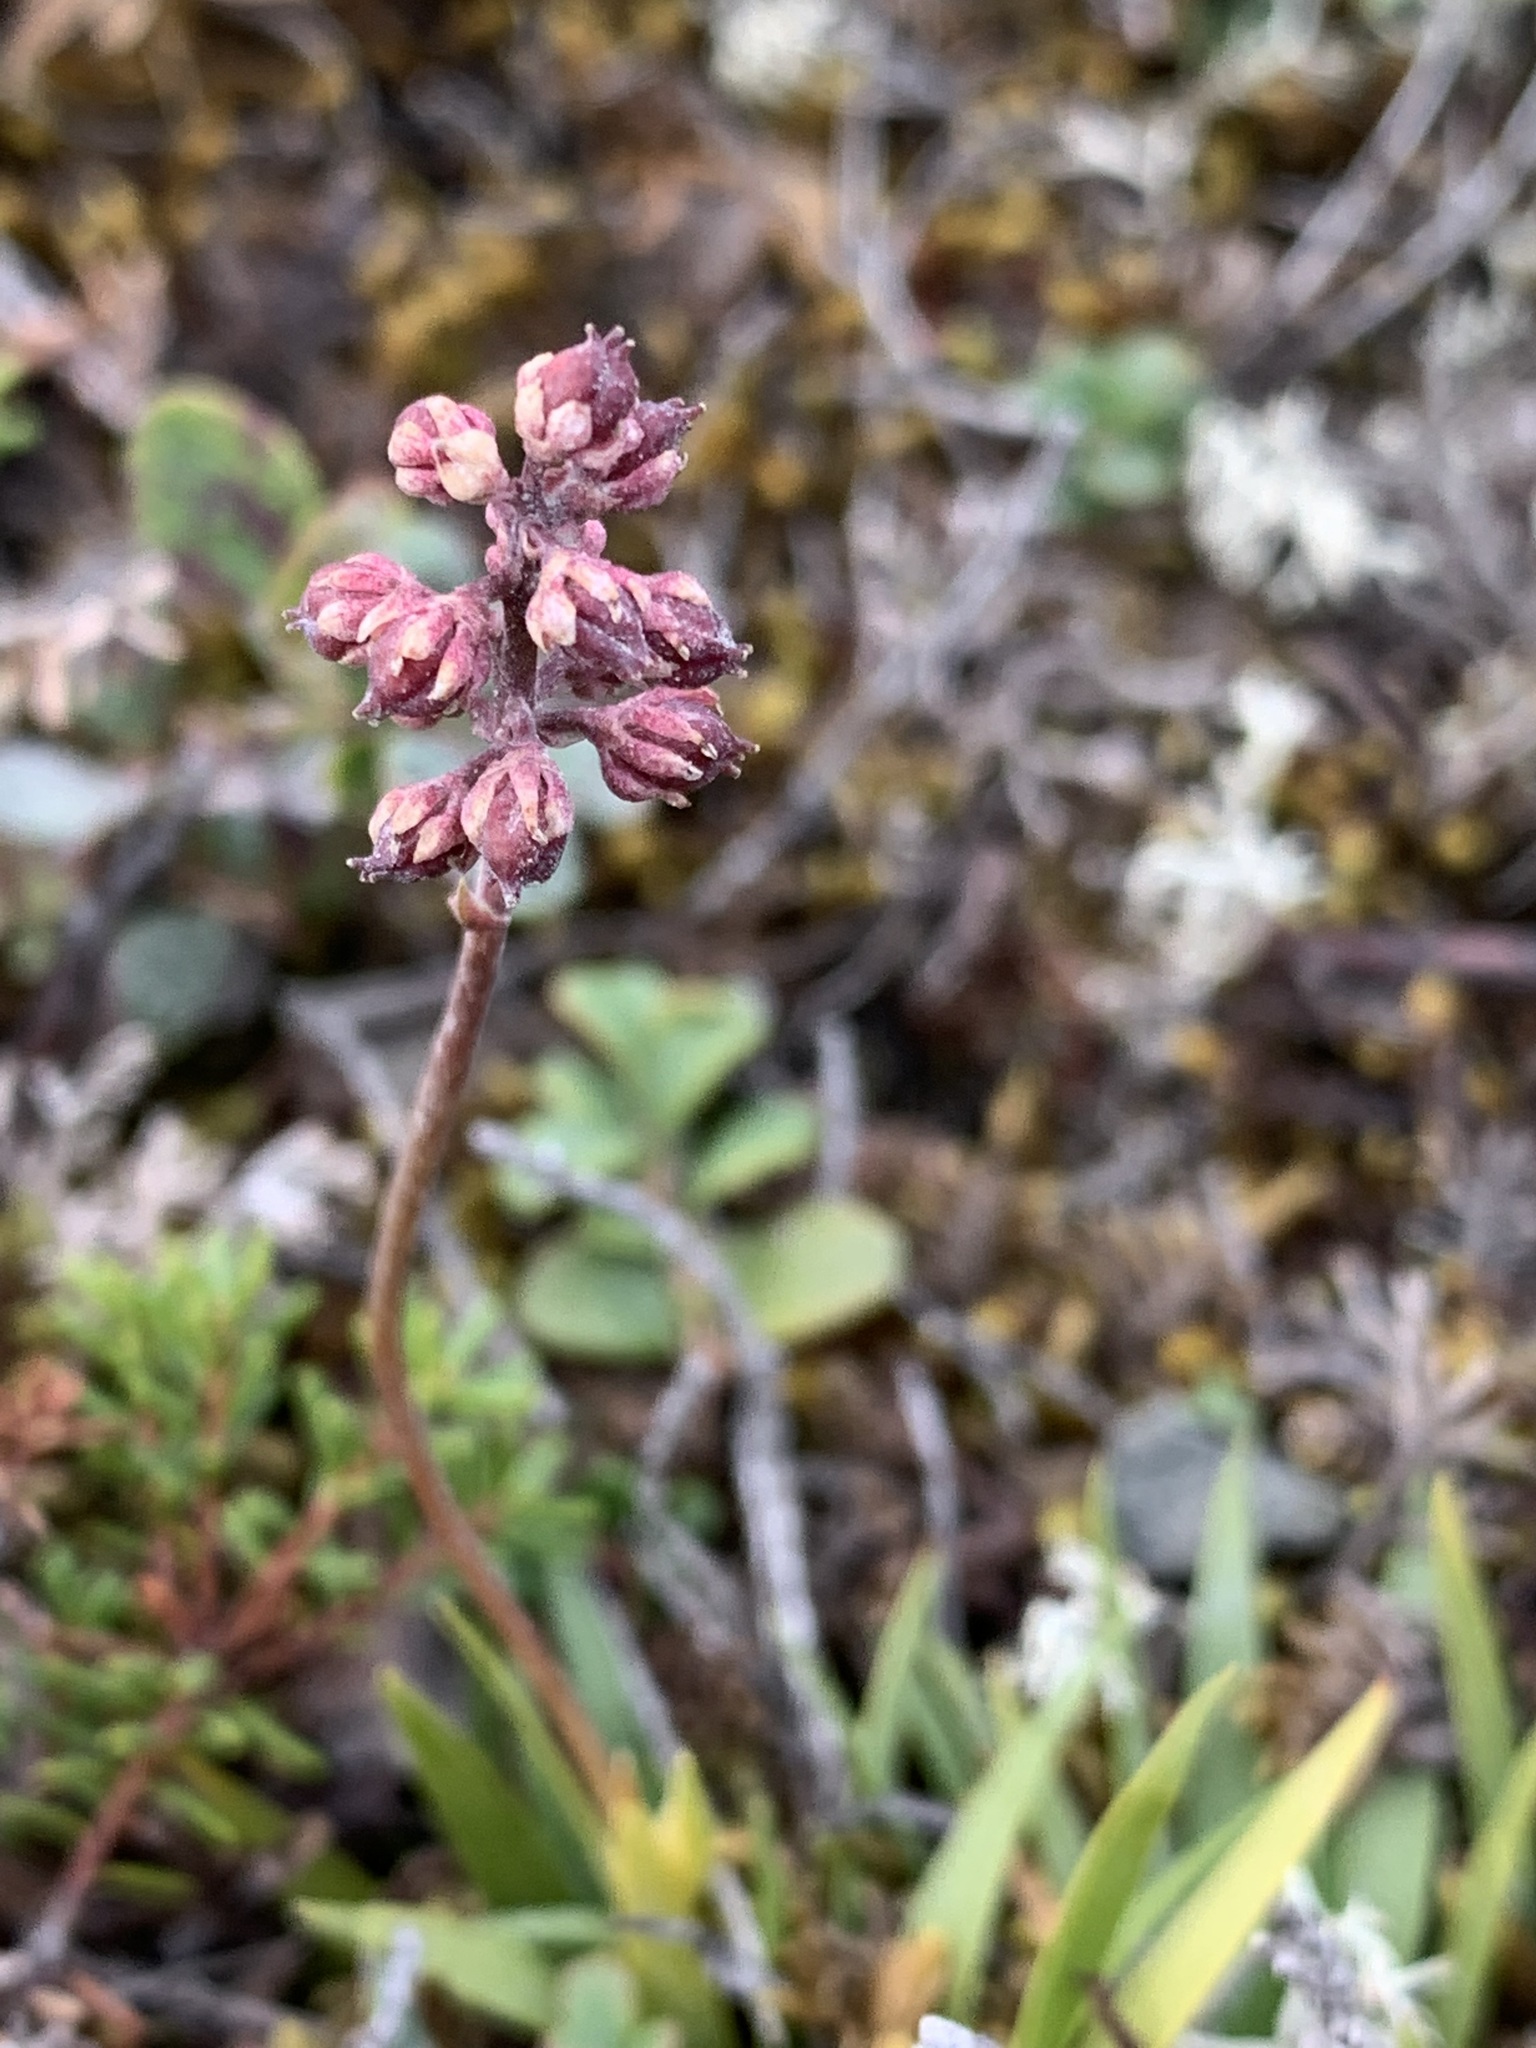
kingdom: Plantae
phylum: Tracheophyta
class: Liliopsida
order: Alismatales
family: Tofieldiaceae
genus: Tofieldia
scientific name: Tofieldia coccinea
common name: Northern false asphodel
